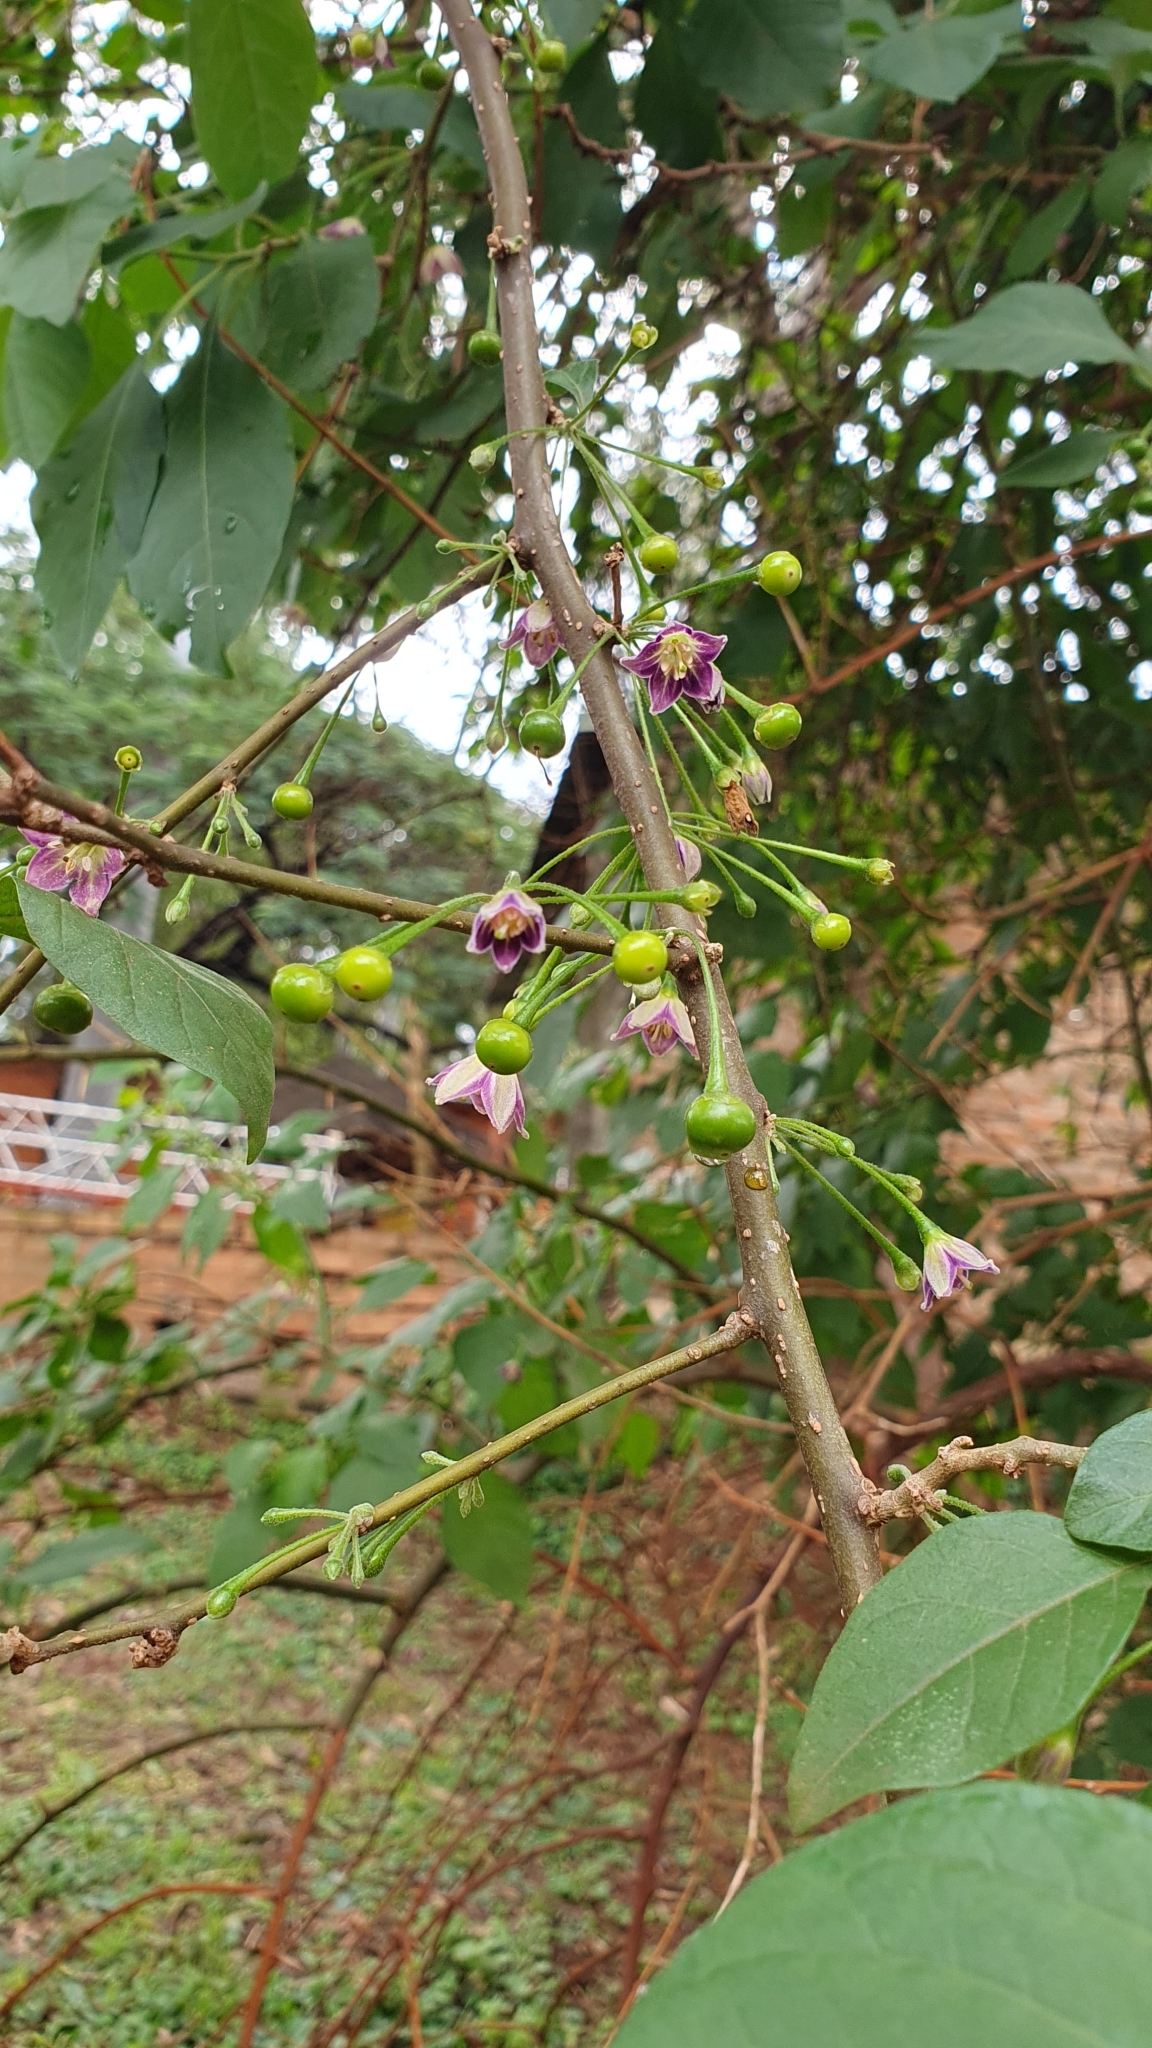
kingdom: Plantae
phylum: Tracheophyta
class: Magnoliopsida
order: Solanales
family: Solanaceae
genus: Vassobia
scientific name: Vassobia breviflora
